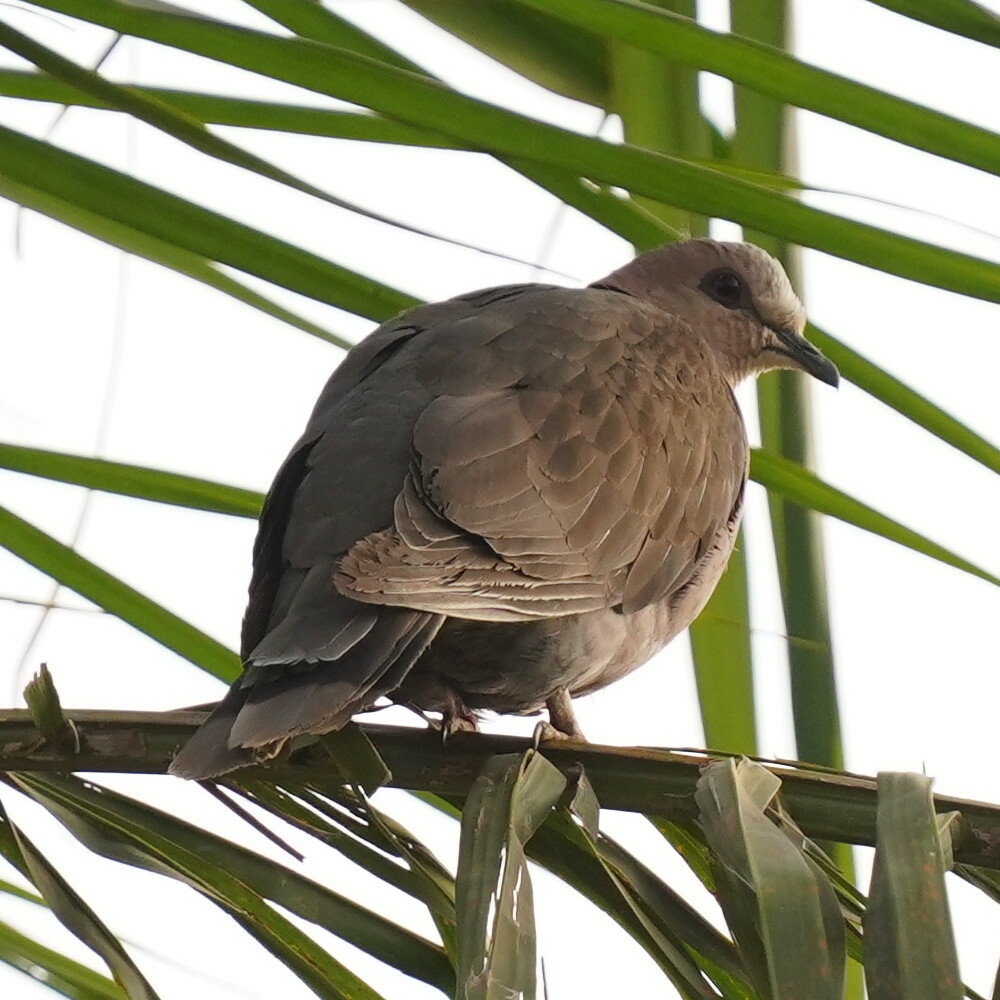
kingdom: Animalia
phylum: Chordata
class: Aves
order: Columbiformes
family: Columbidae
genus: Streptopelia
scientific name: Streptopelia semitorquata
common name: Red-eyed dove
